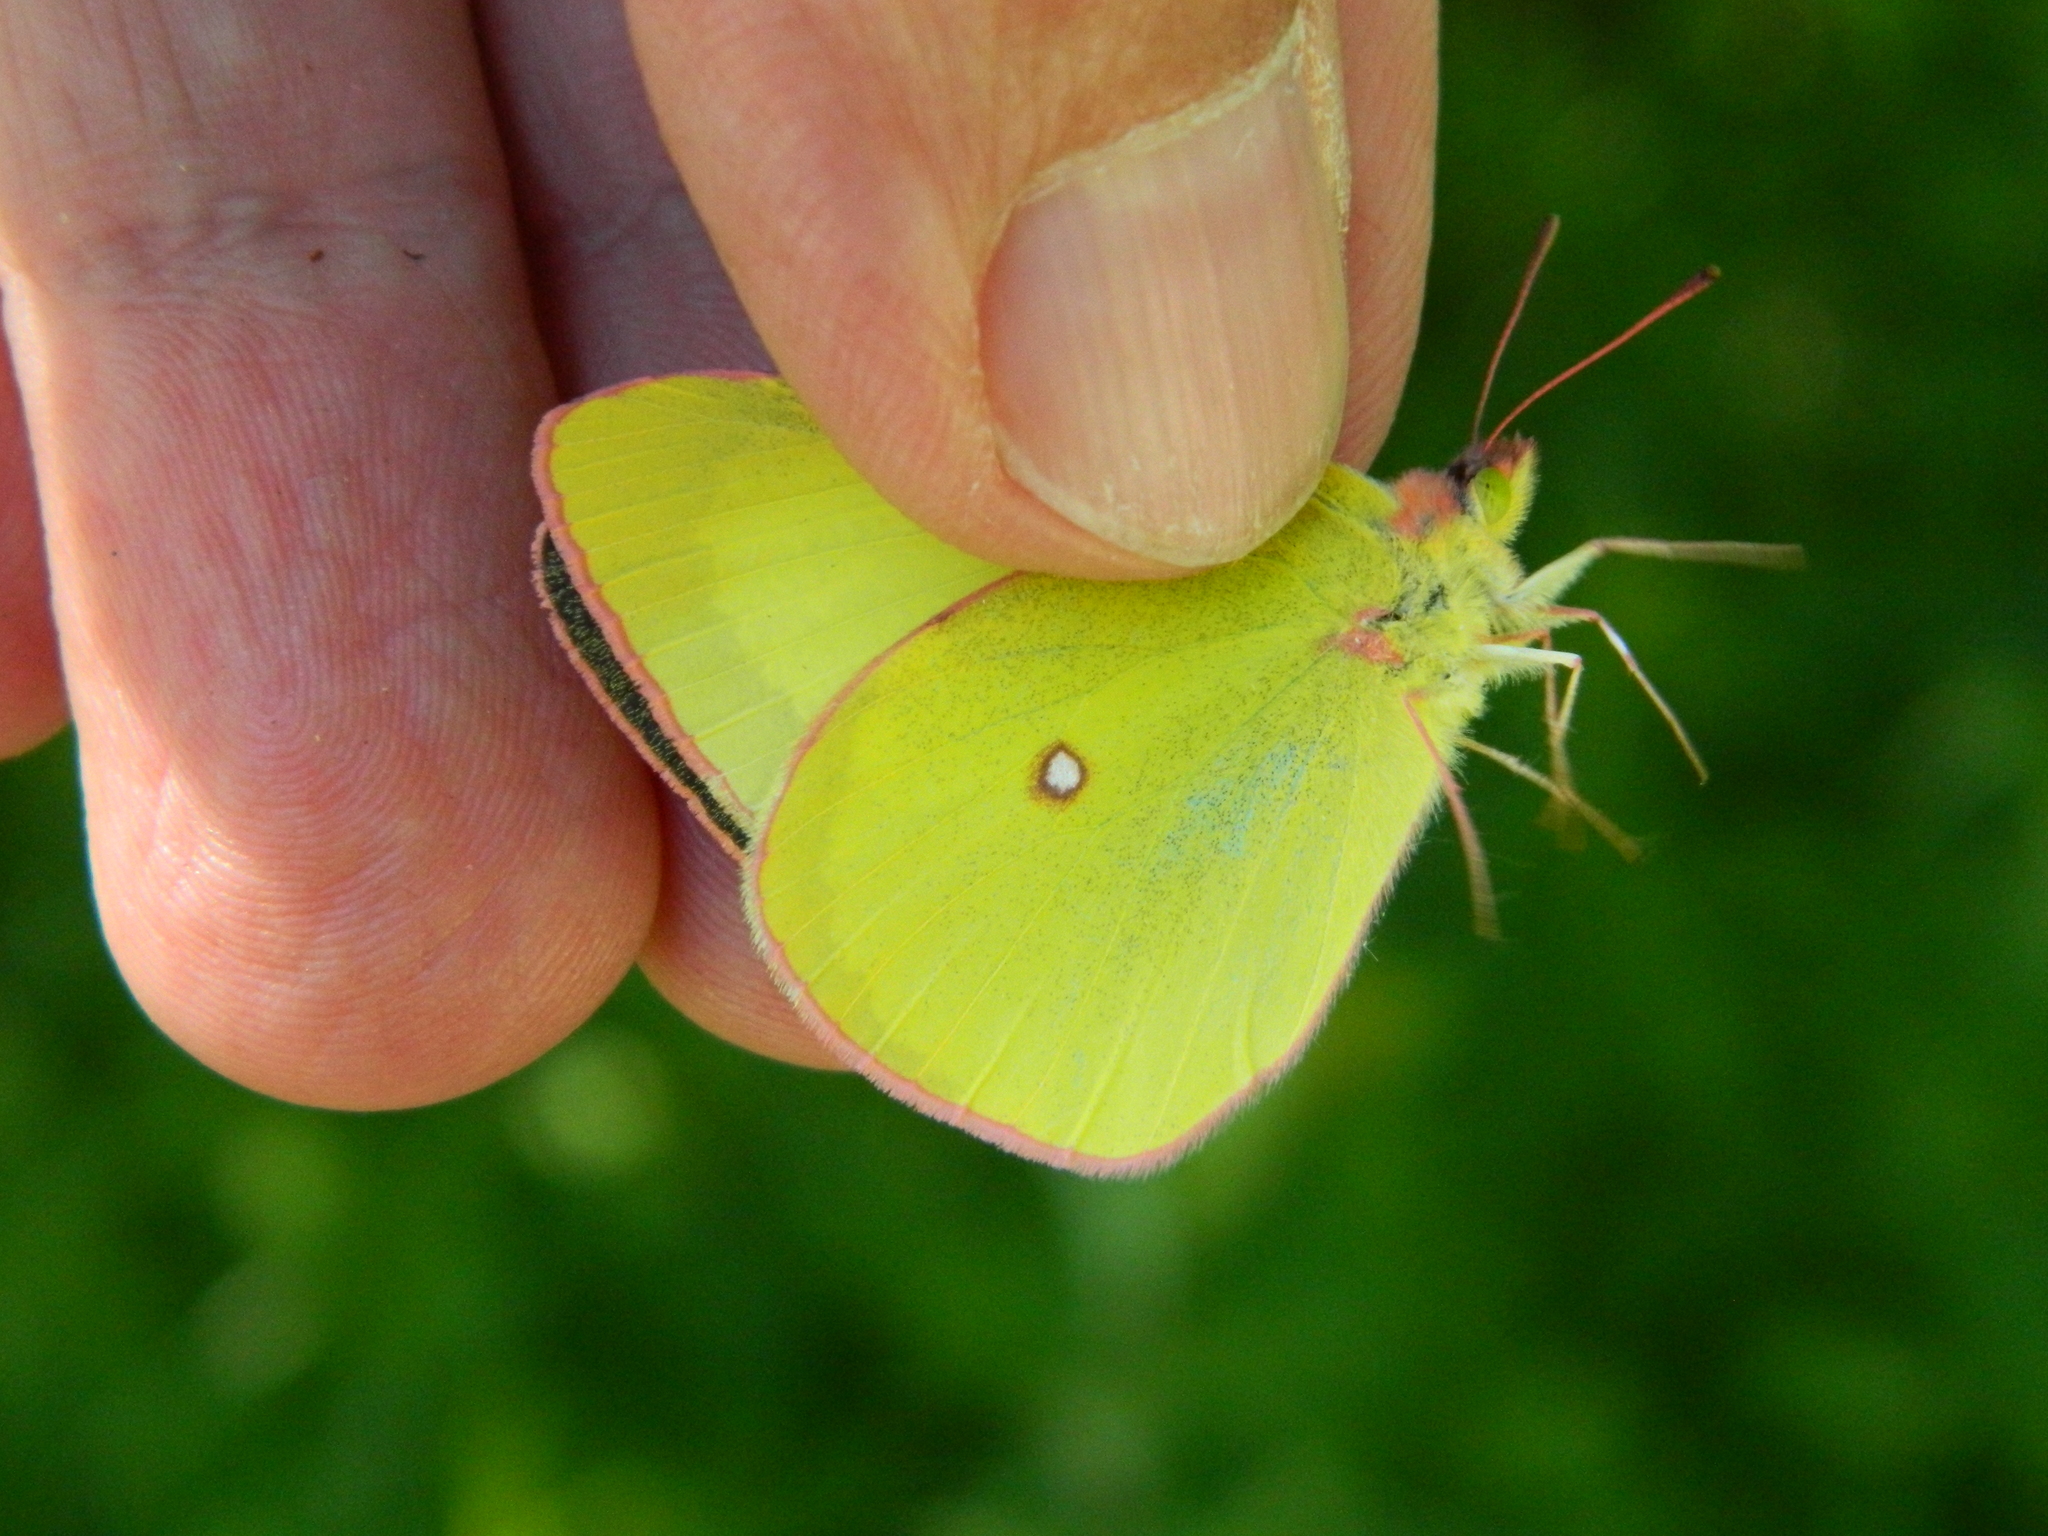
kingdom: Animalia
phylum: Arthropoda
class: Insecta
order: Lepidoptera
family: Pieridae
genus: Colias
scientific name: Colias interior
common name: Pink-edged sulphur
